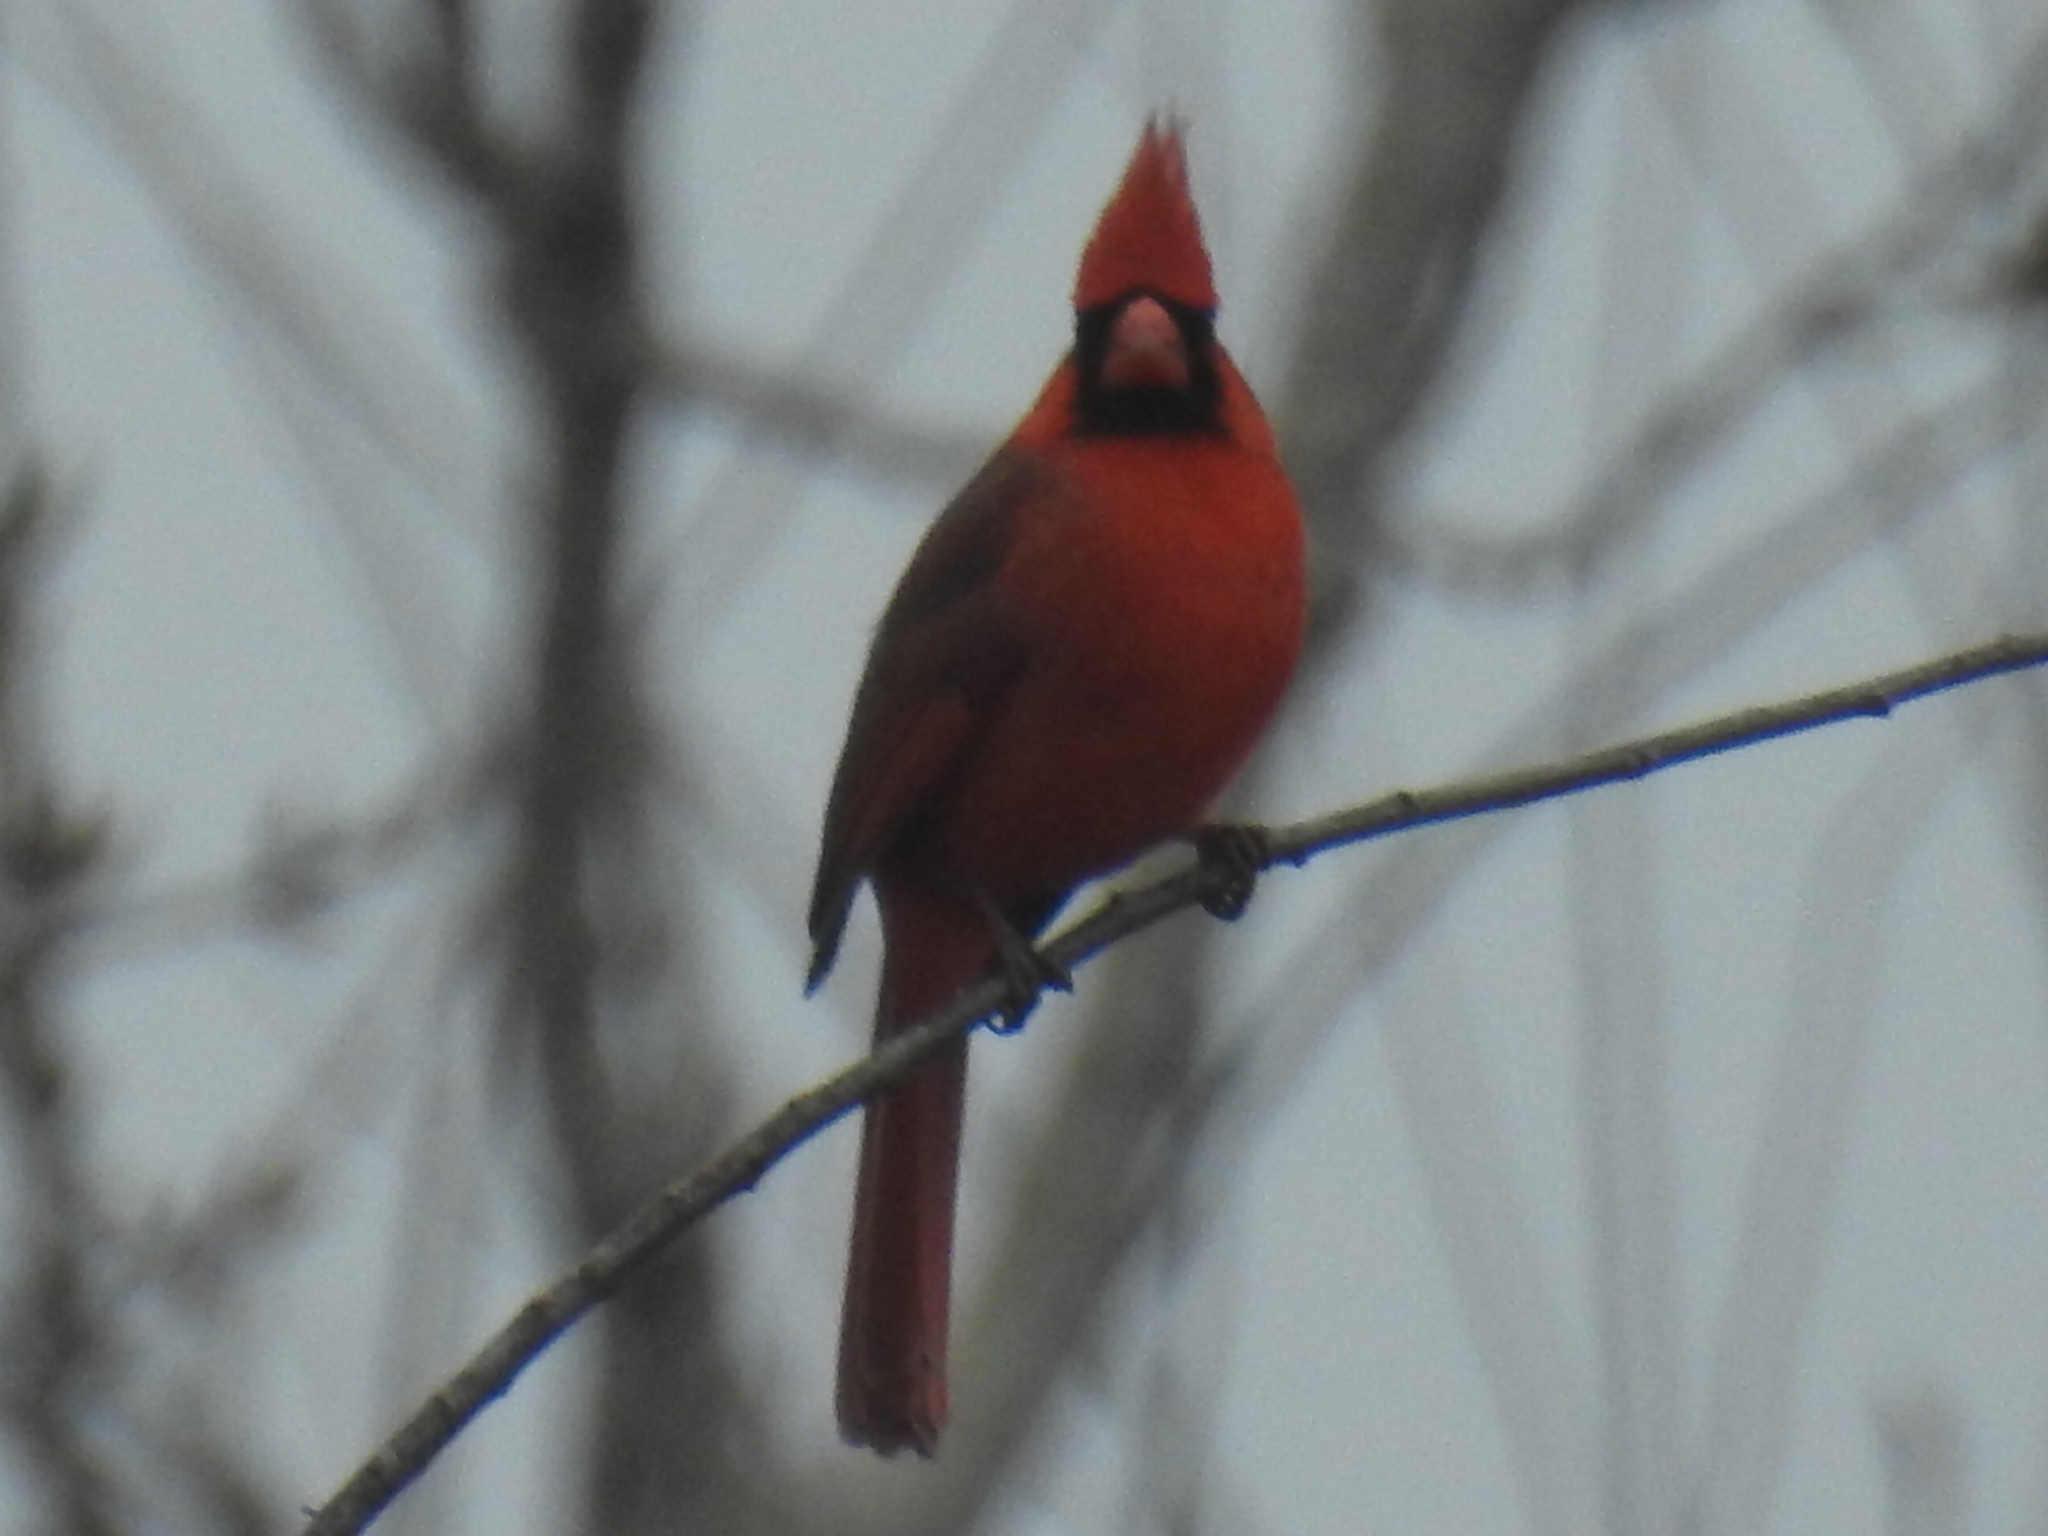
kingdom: Animalia
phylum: Chordata
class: Aves
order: Passeriformes
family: Cardinalidae
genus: Cardinalis
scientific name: Cardinalis cardinalis
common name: Northern cardinal
